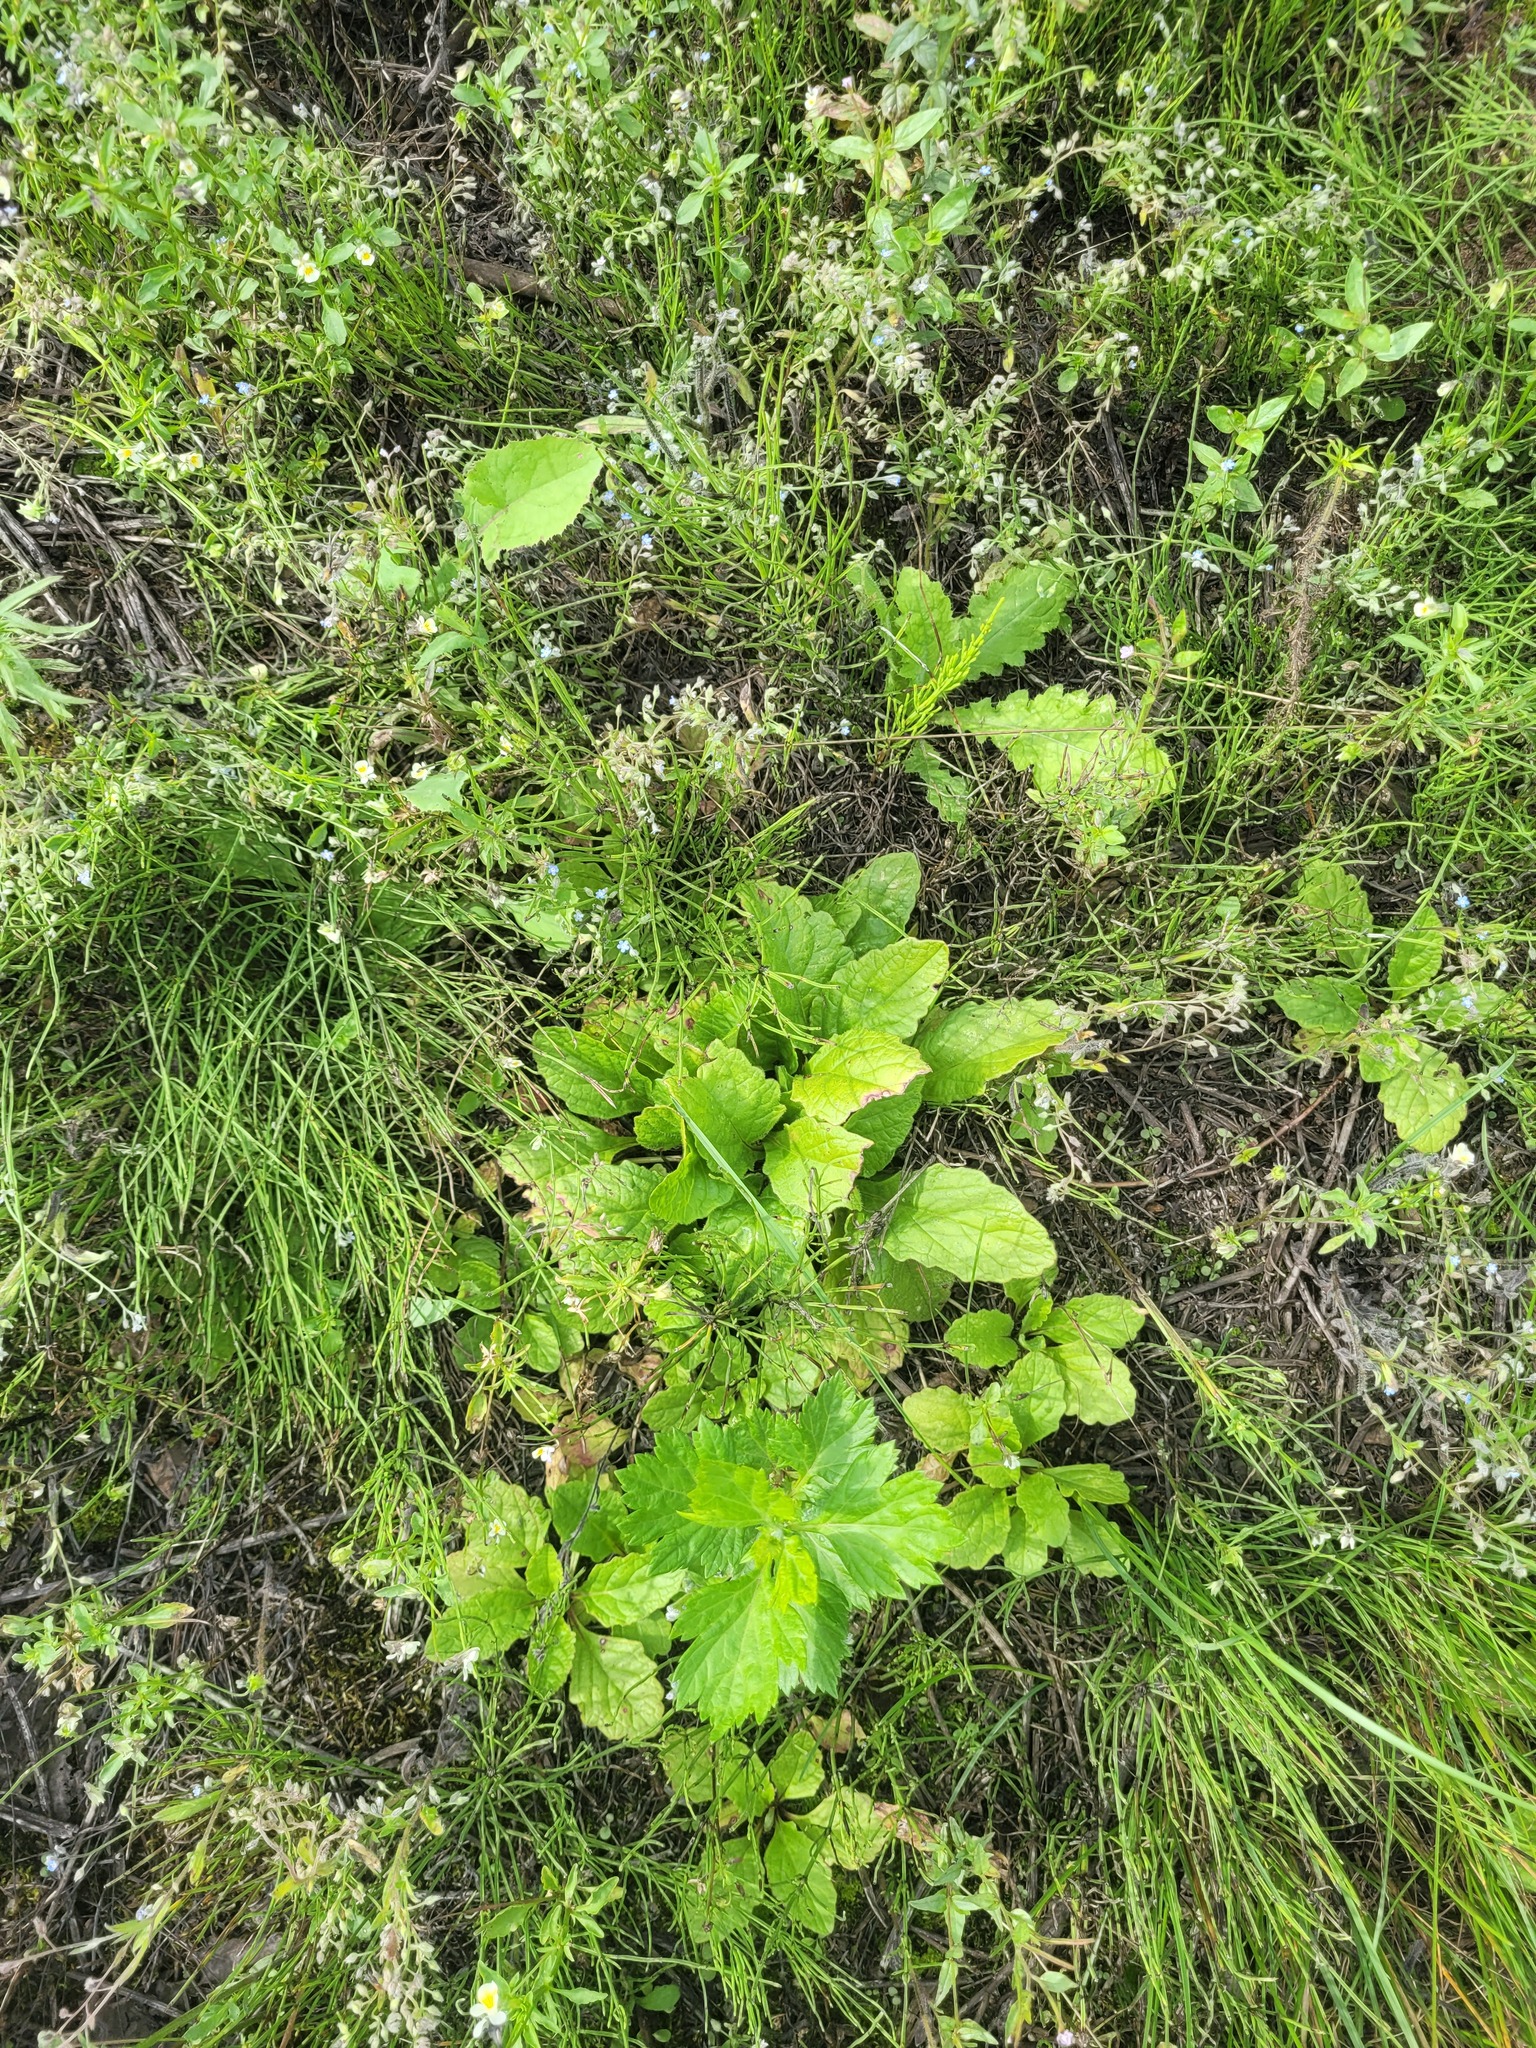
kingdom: Plantae
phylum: Tracheophyta
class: Magnoliopsida
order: Lamiales
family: Lamiaceae
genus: Ajuga
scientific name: Ajuga reptans
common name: Bugle
